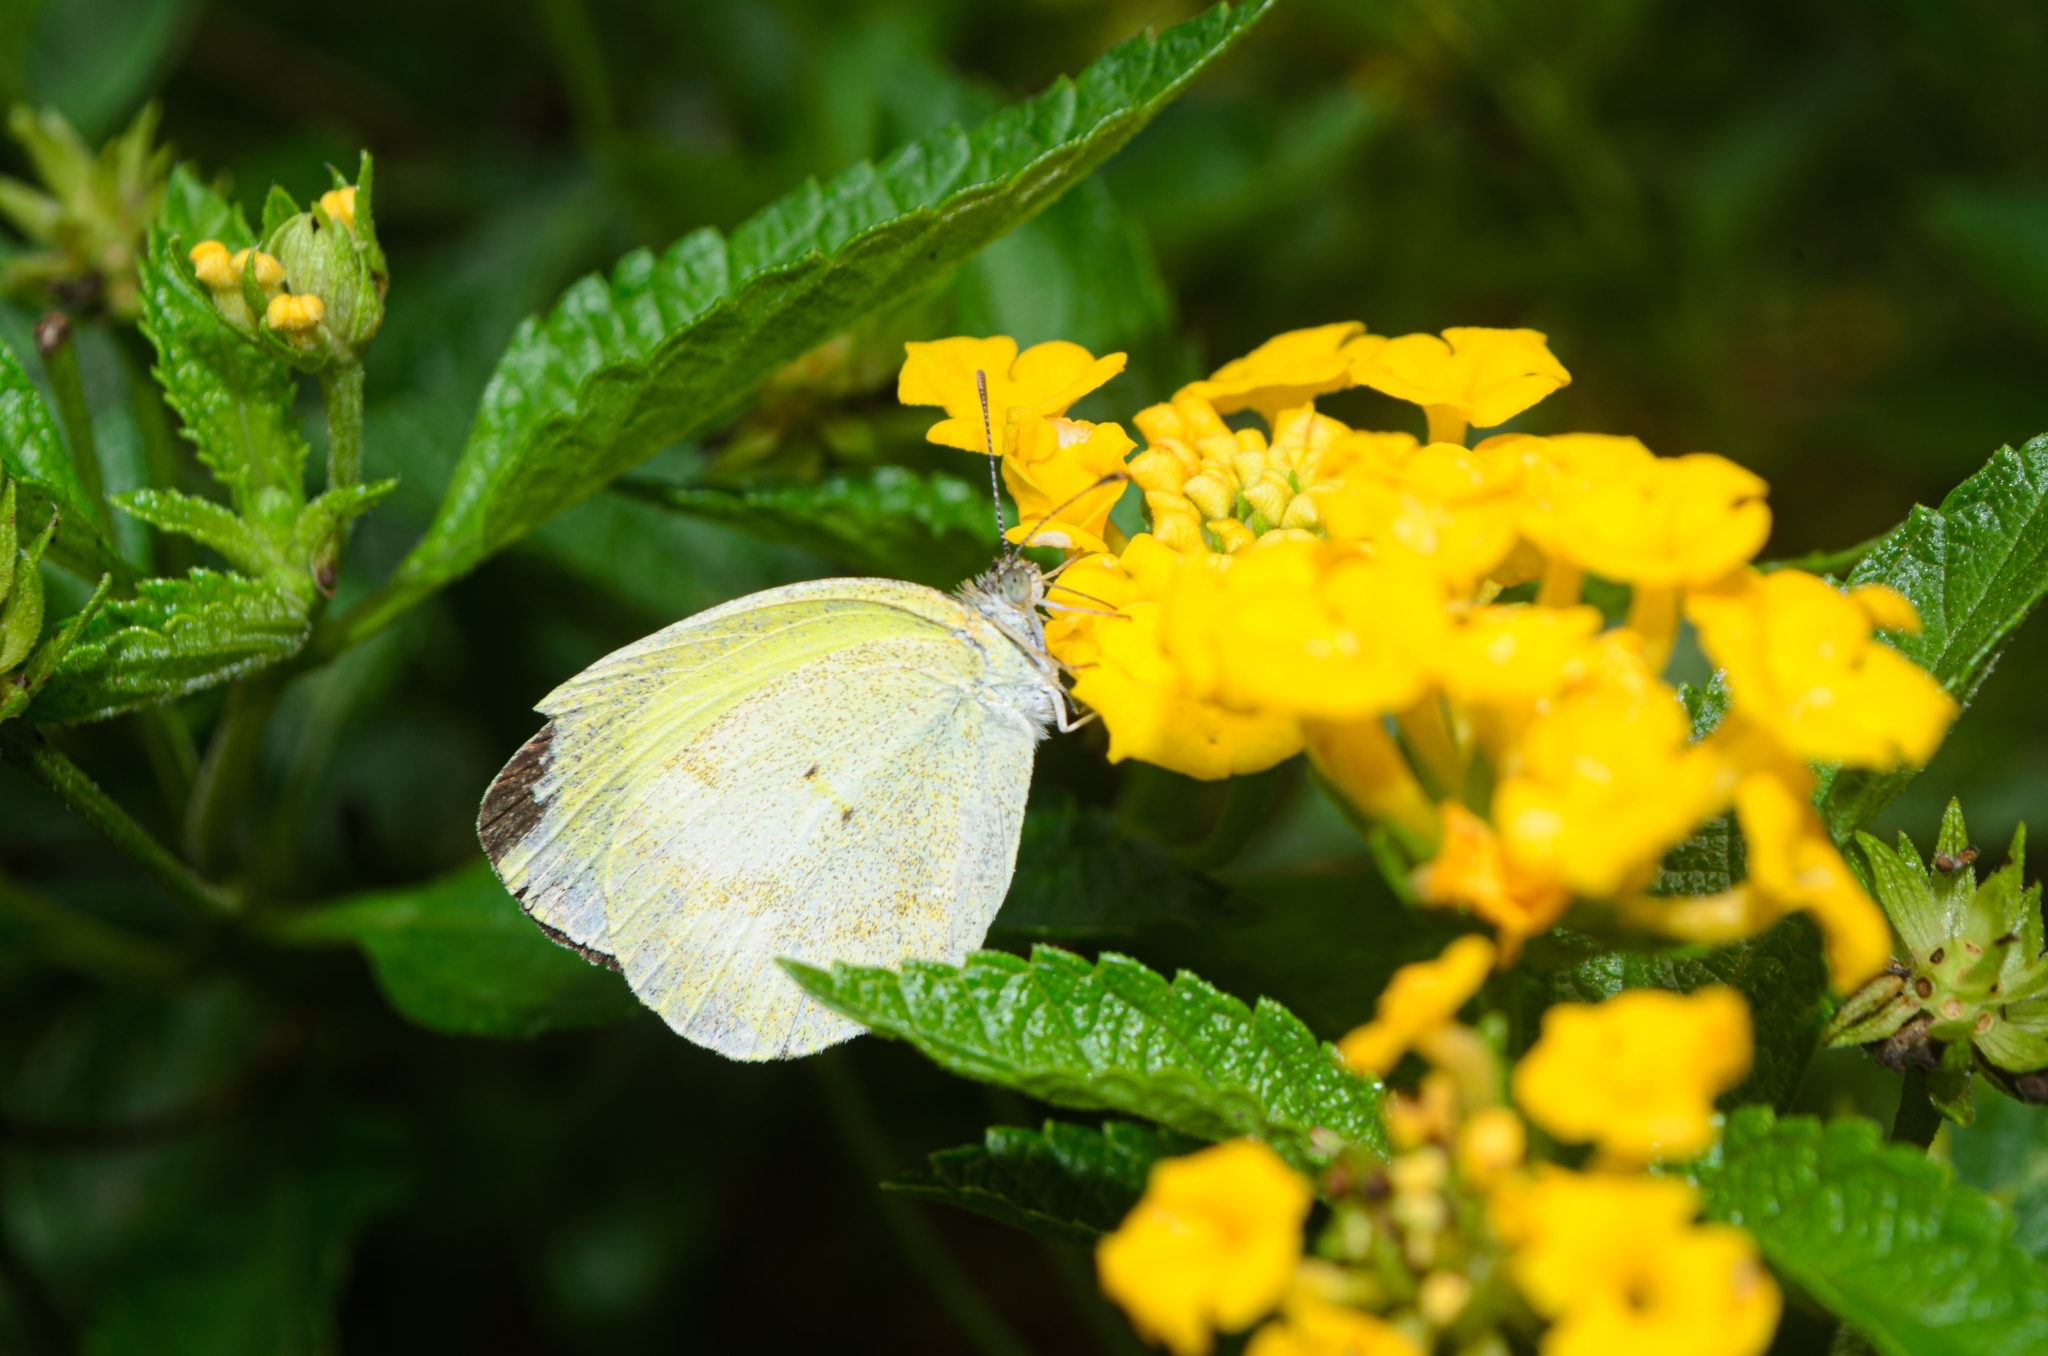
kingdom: Animalia
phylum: Arthropoda
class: Insecta
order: Lepidoptera
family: Pieridae
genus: Eurema
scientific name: Eurema elathea
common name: Banded yellow
